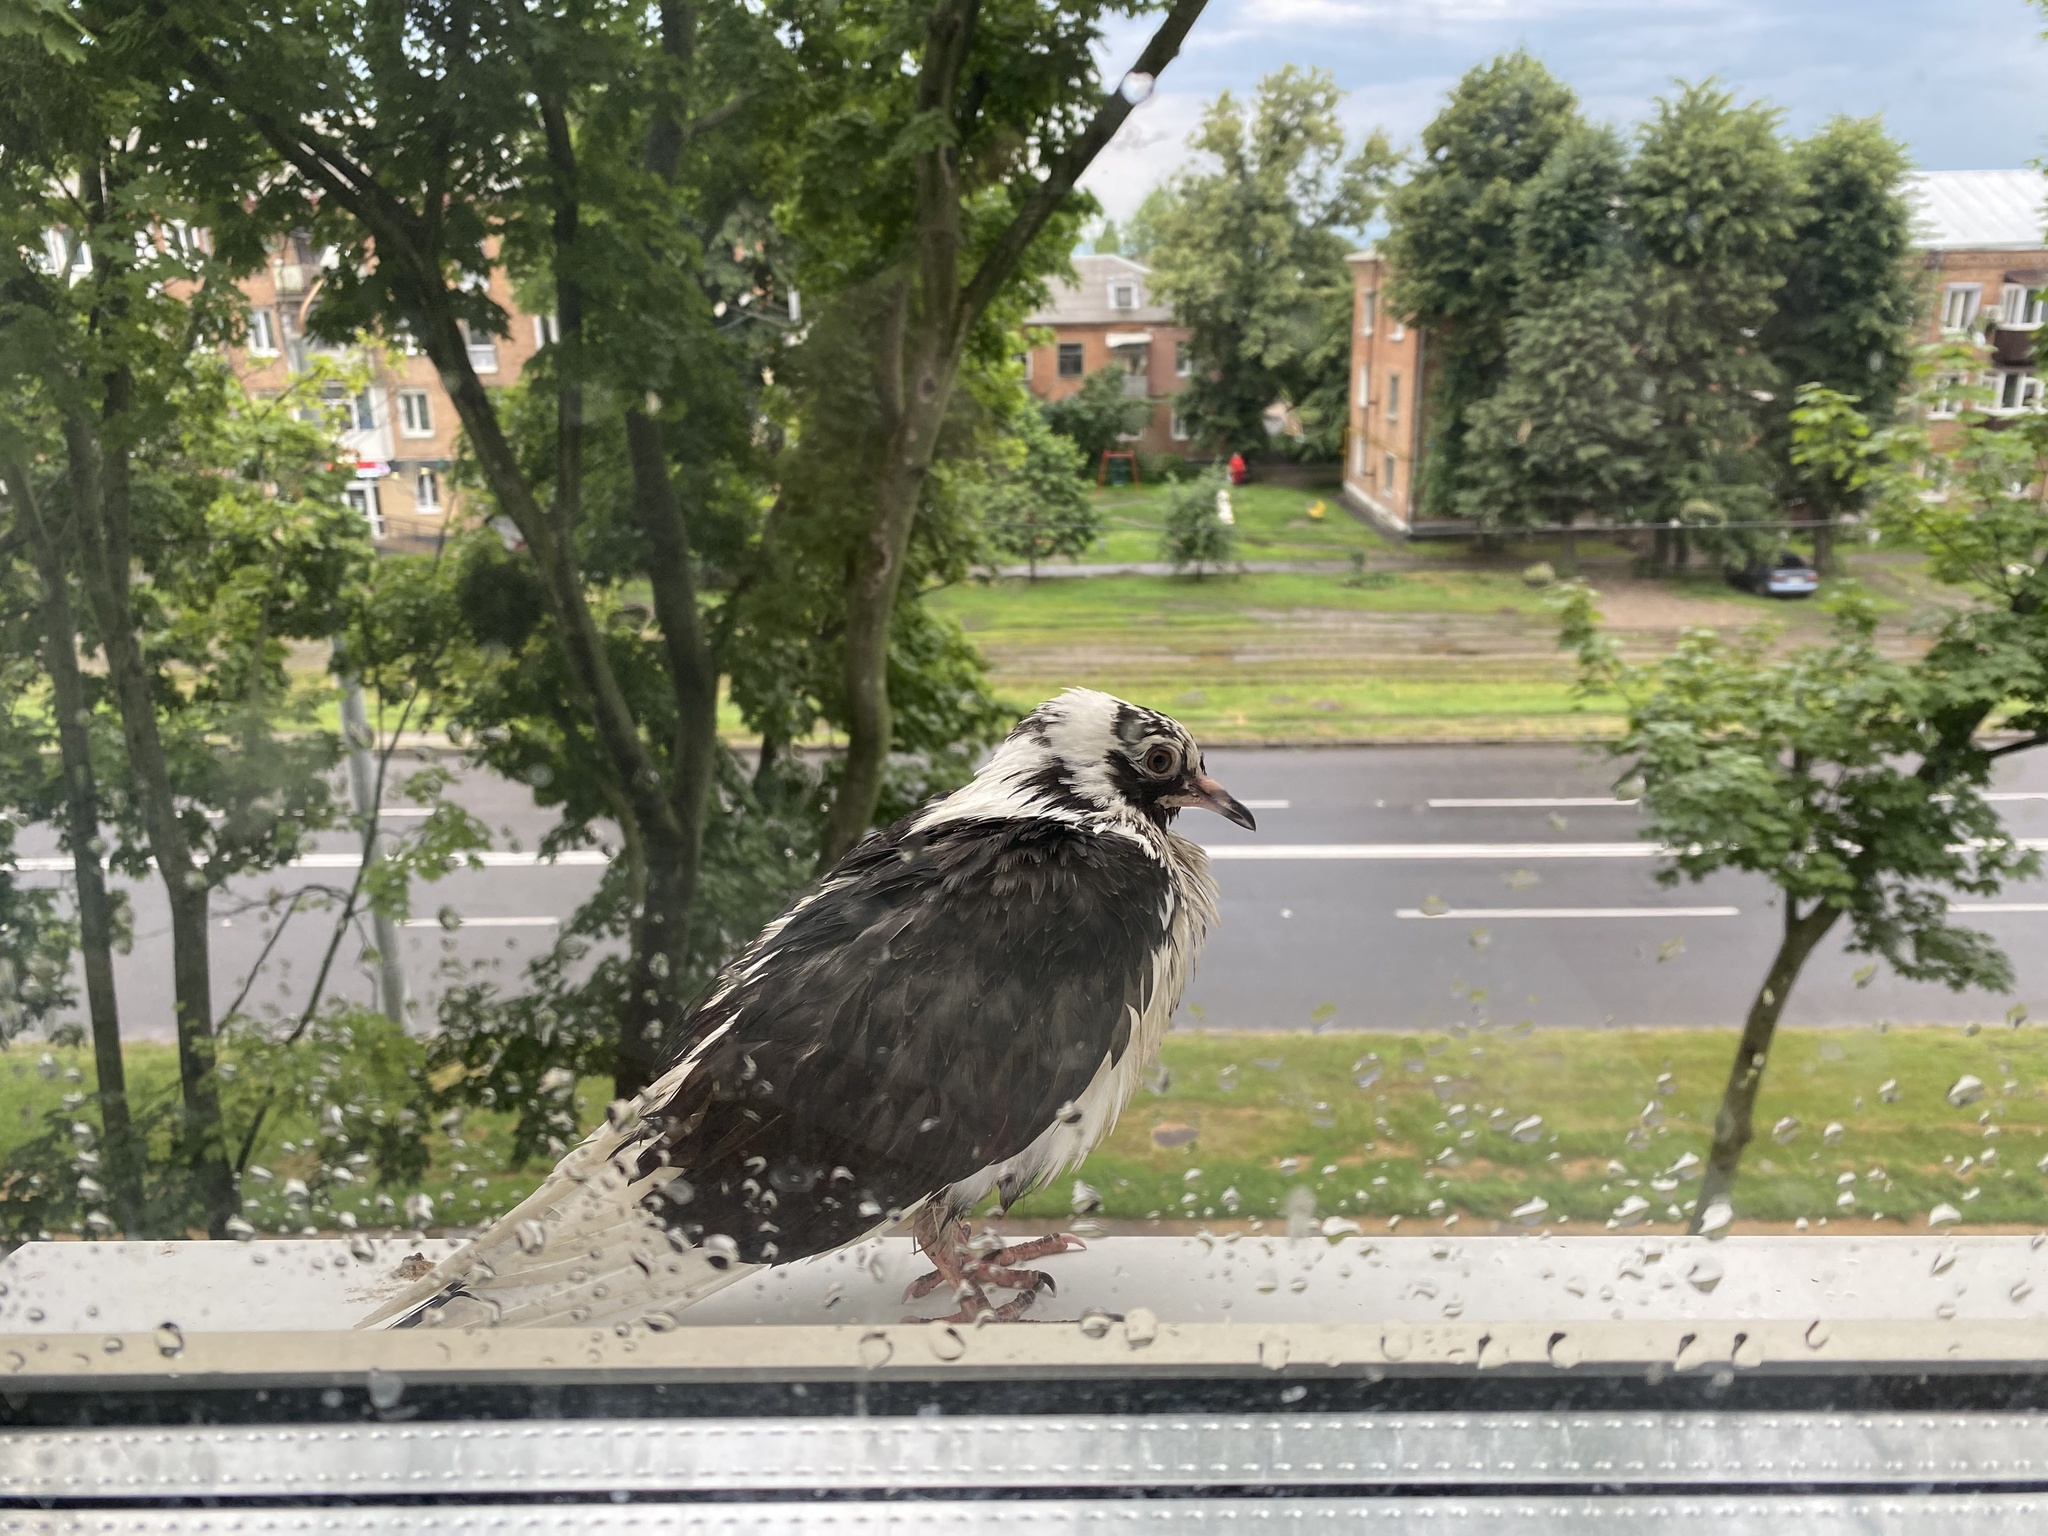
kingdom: Animalia
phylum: Chordata
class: Aves
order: Columbiformes
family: Columbidae
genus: Columba
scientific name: Columba livia
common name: Rock pigeon
